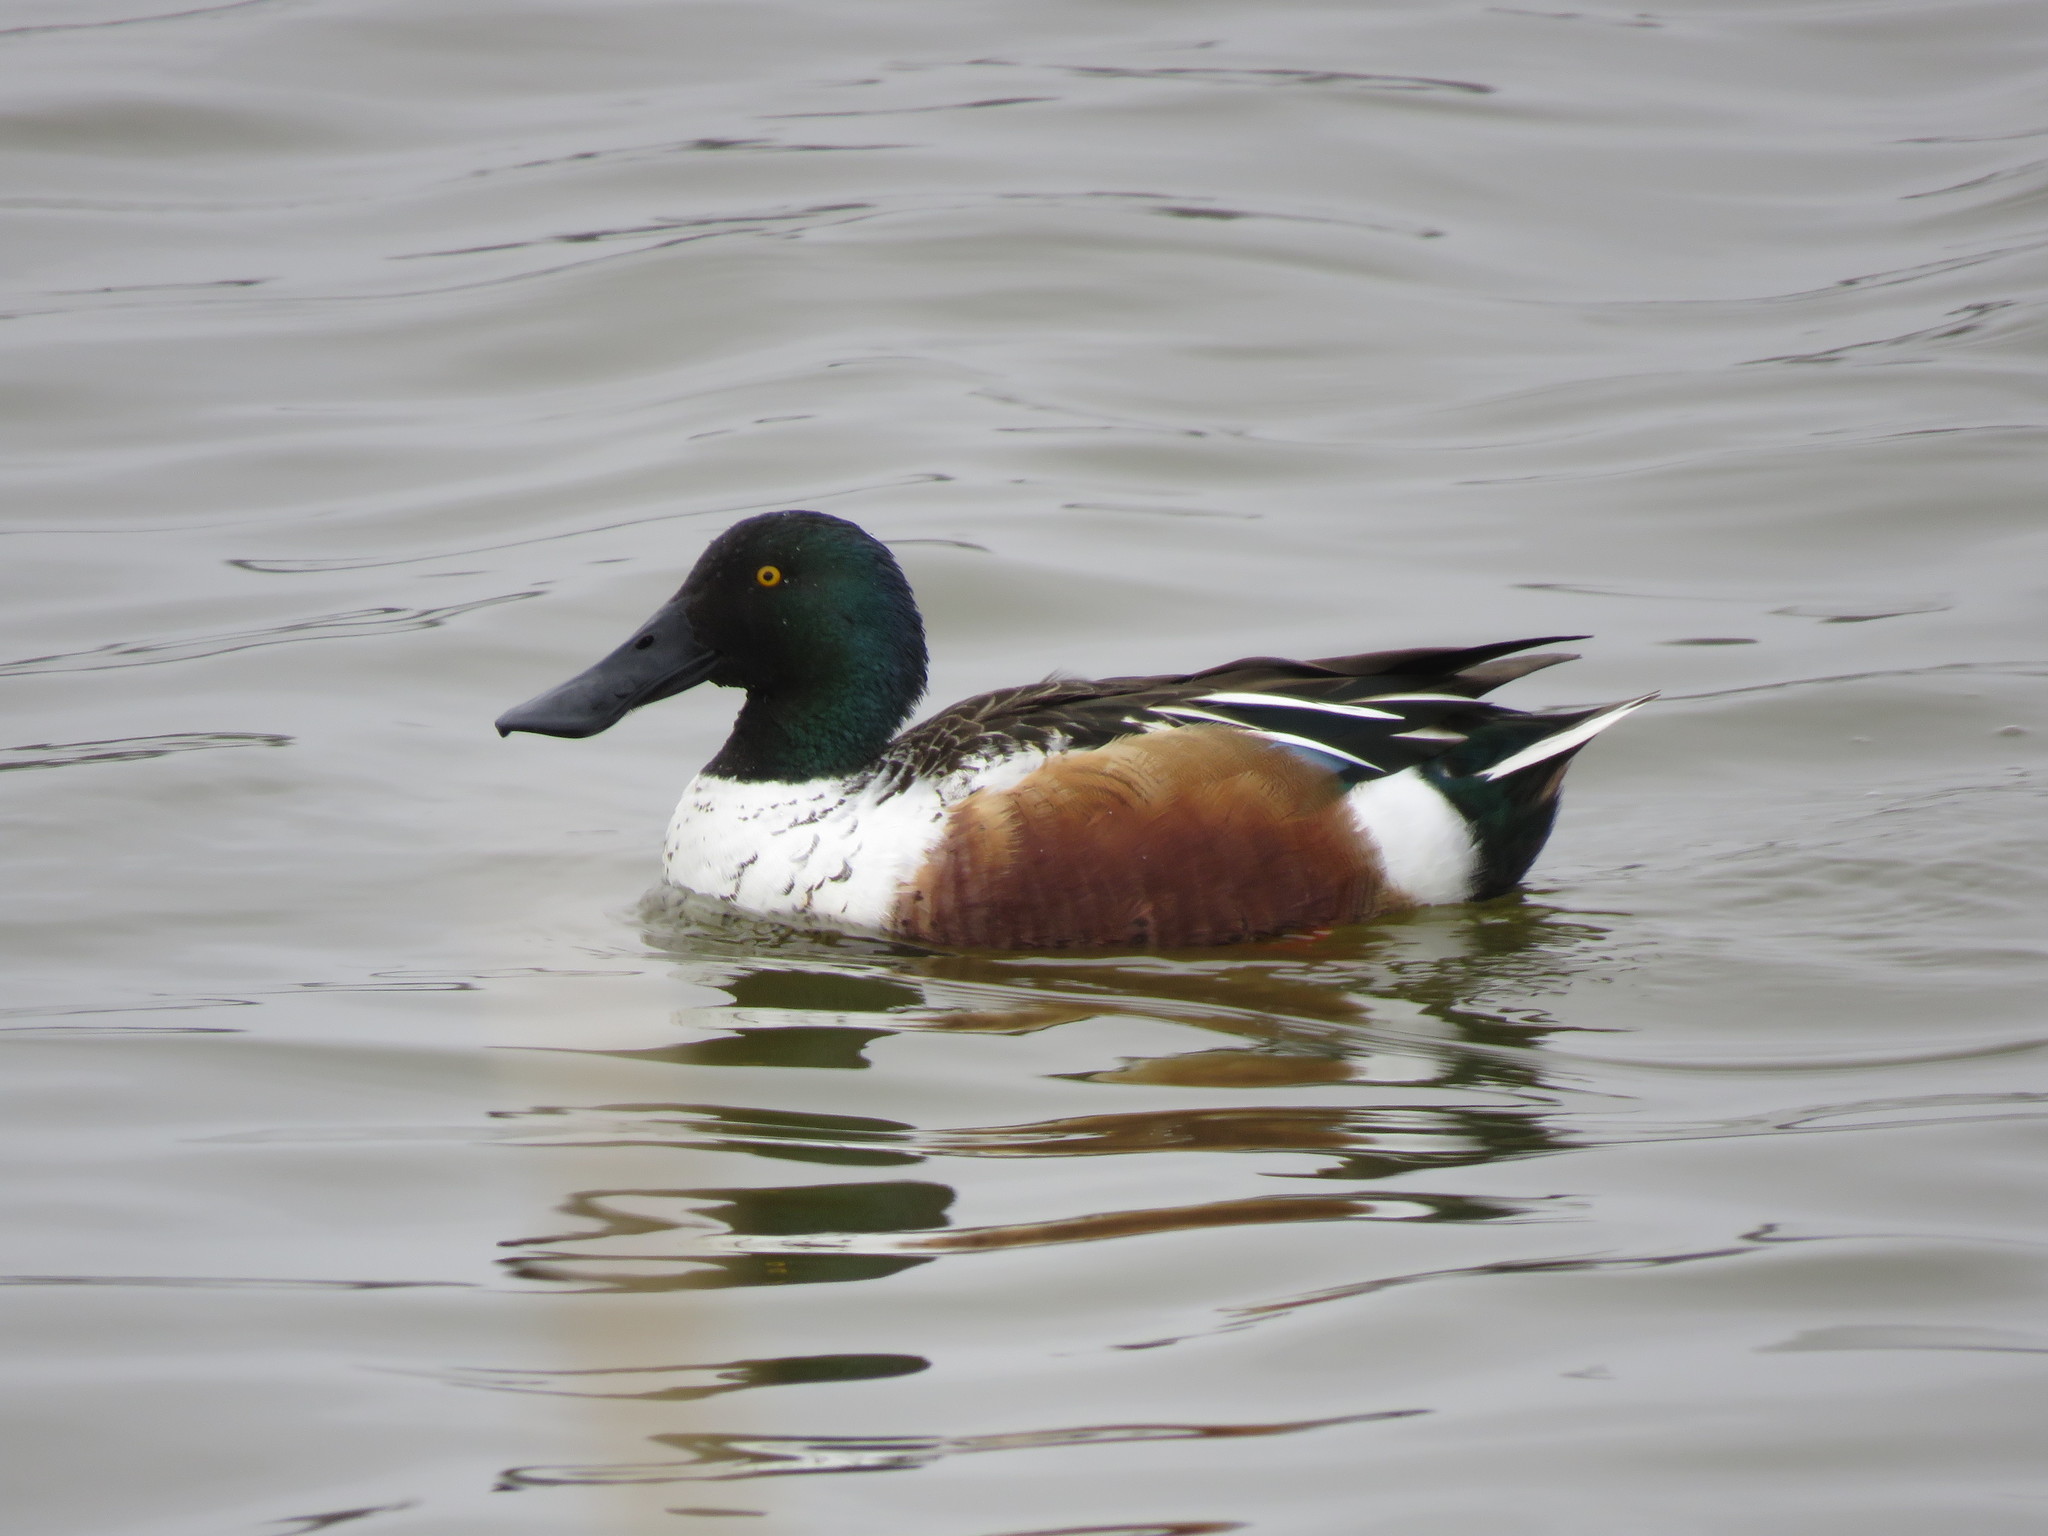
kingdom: Animalia
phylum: Chordata
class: Aves
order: Anseriformes
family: Anatidae
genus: Spatula
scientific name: Spatula clypeata
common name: Northern shoveler
